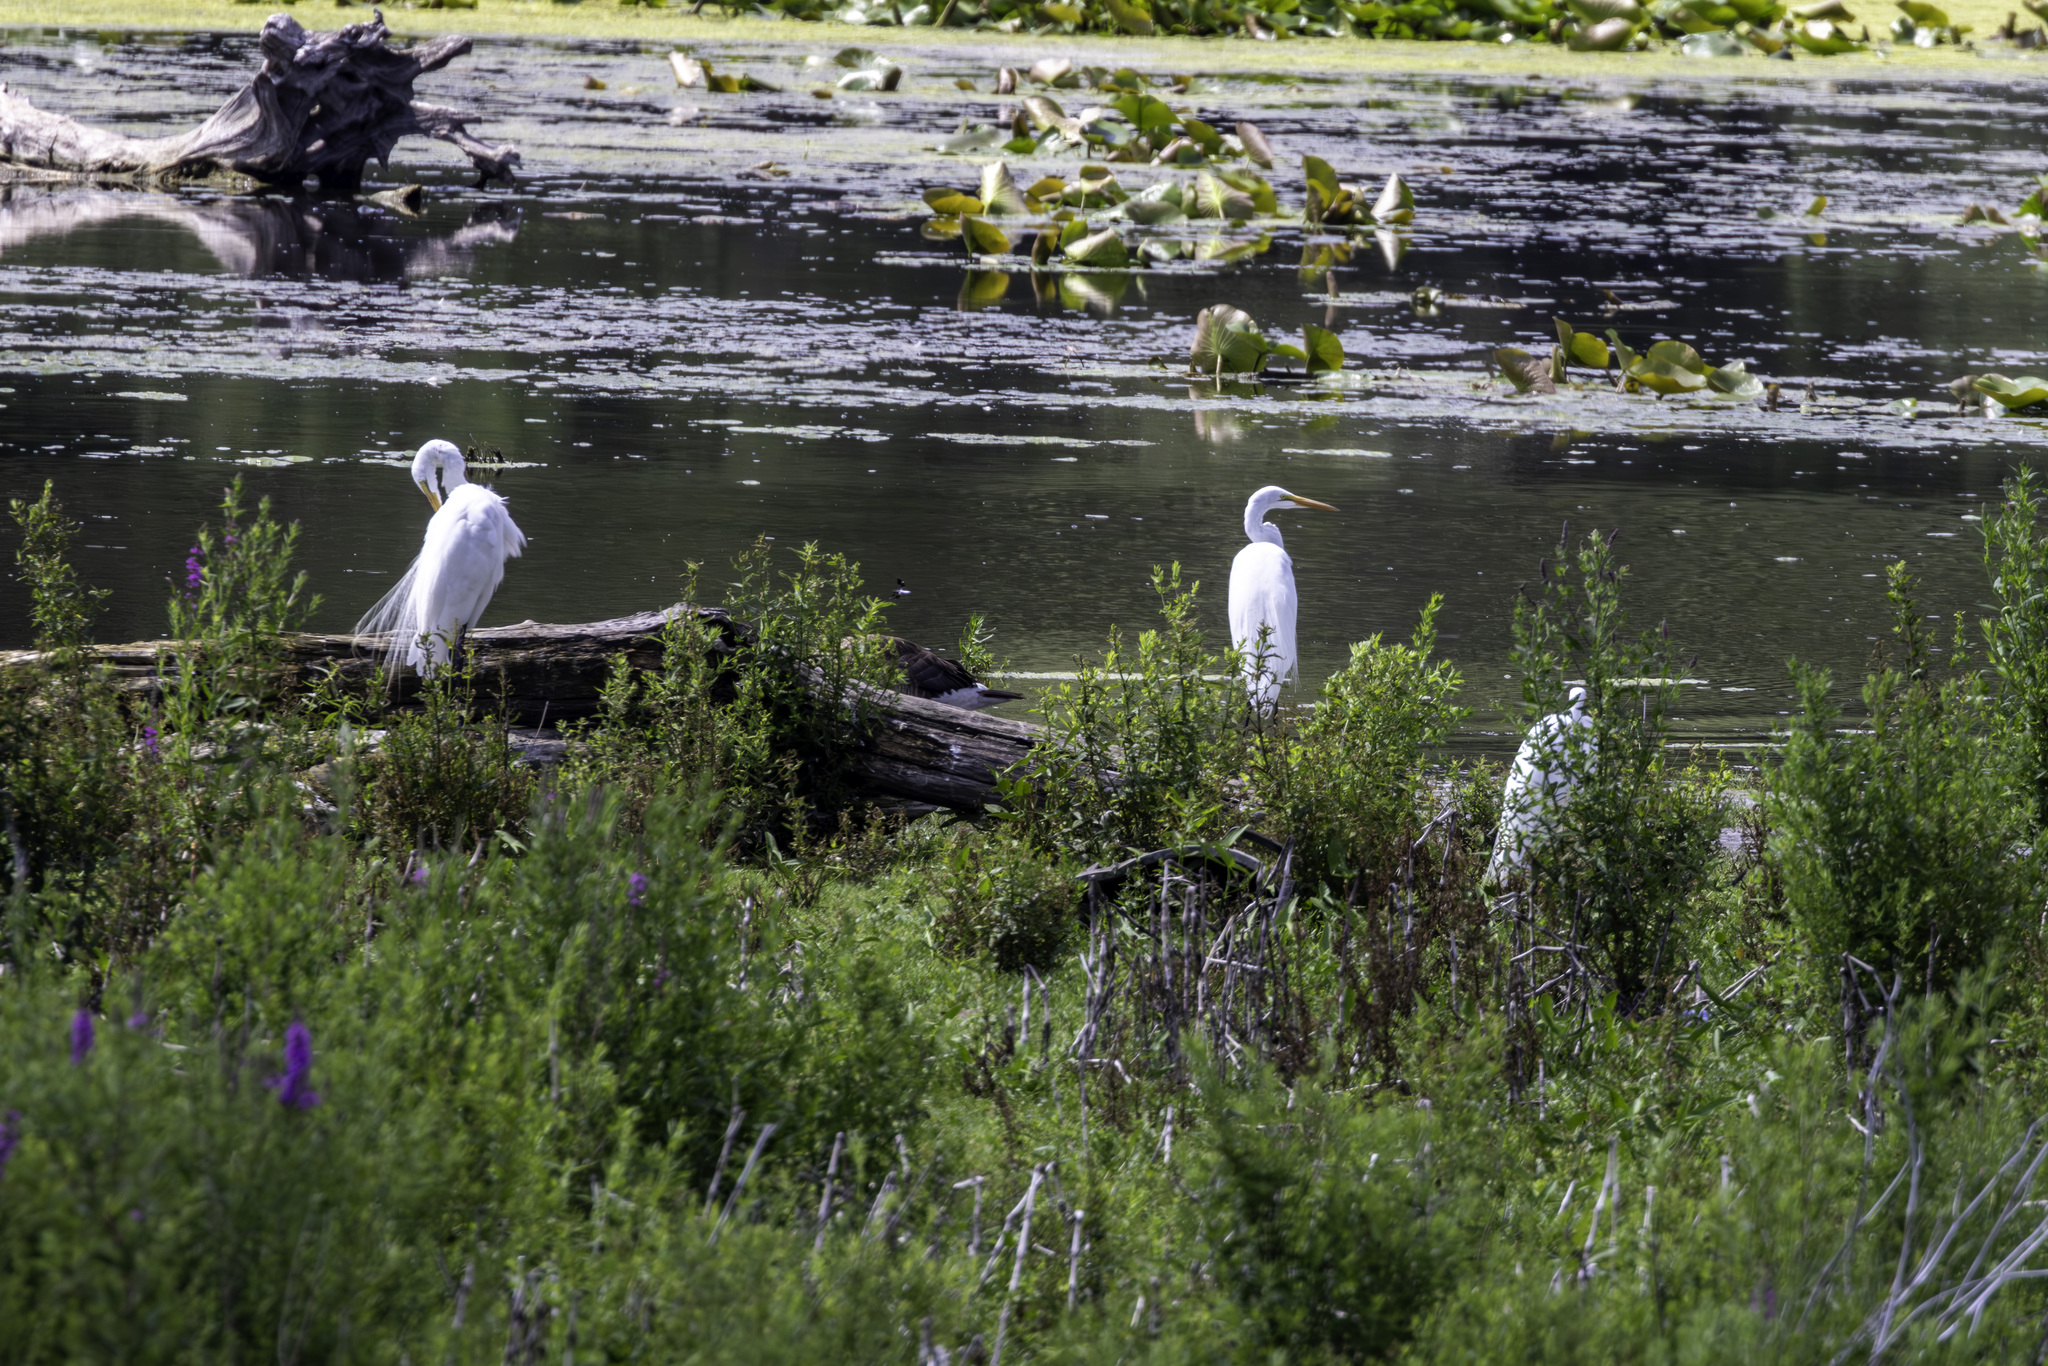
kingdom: Animalia
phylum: Chordata
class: Aves
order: Pelecaniformes
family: Ardeidae
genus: Ardea
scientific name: Ardea alba
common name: Great egret
